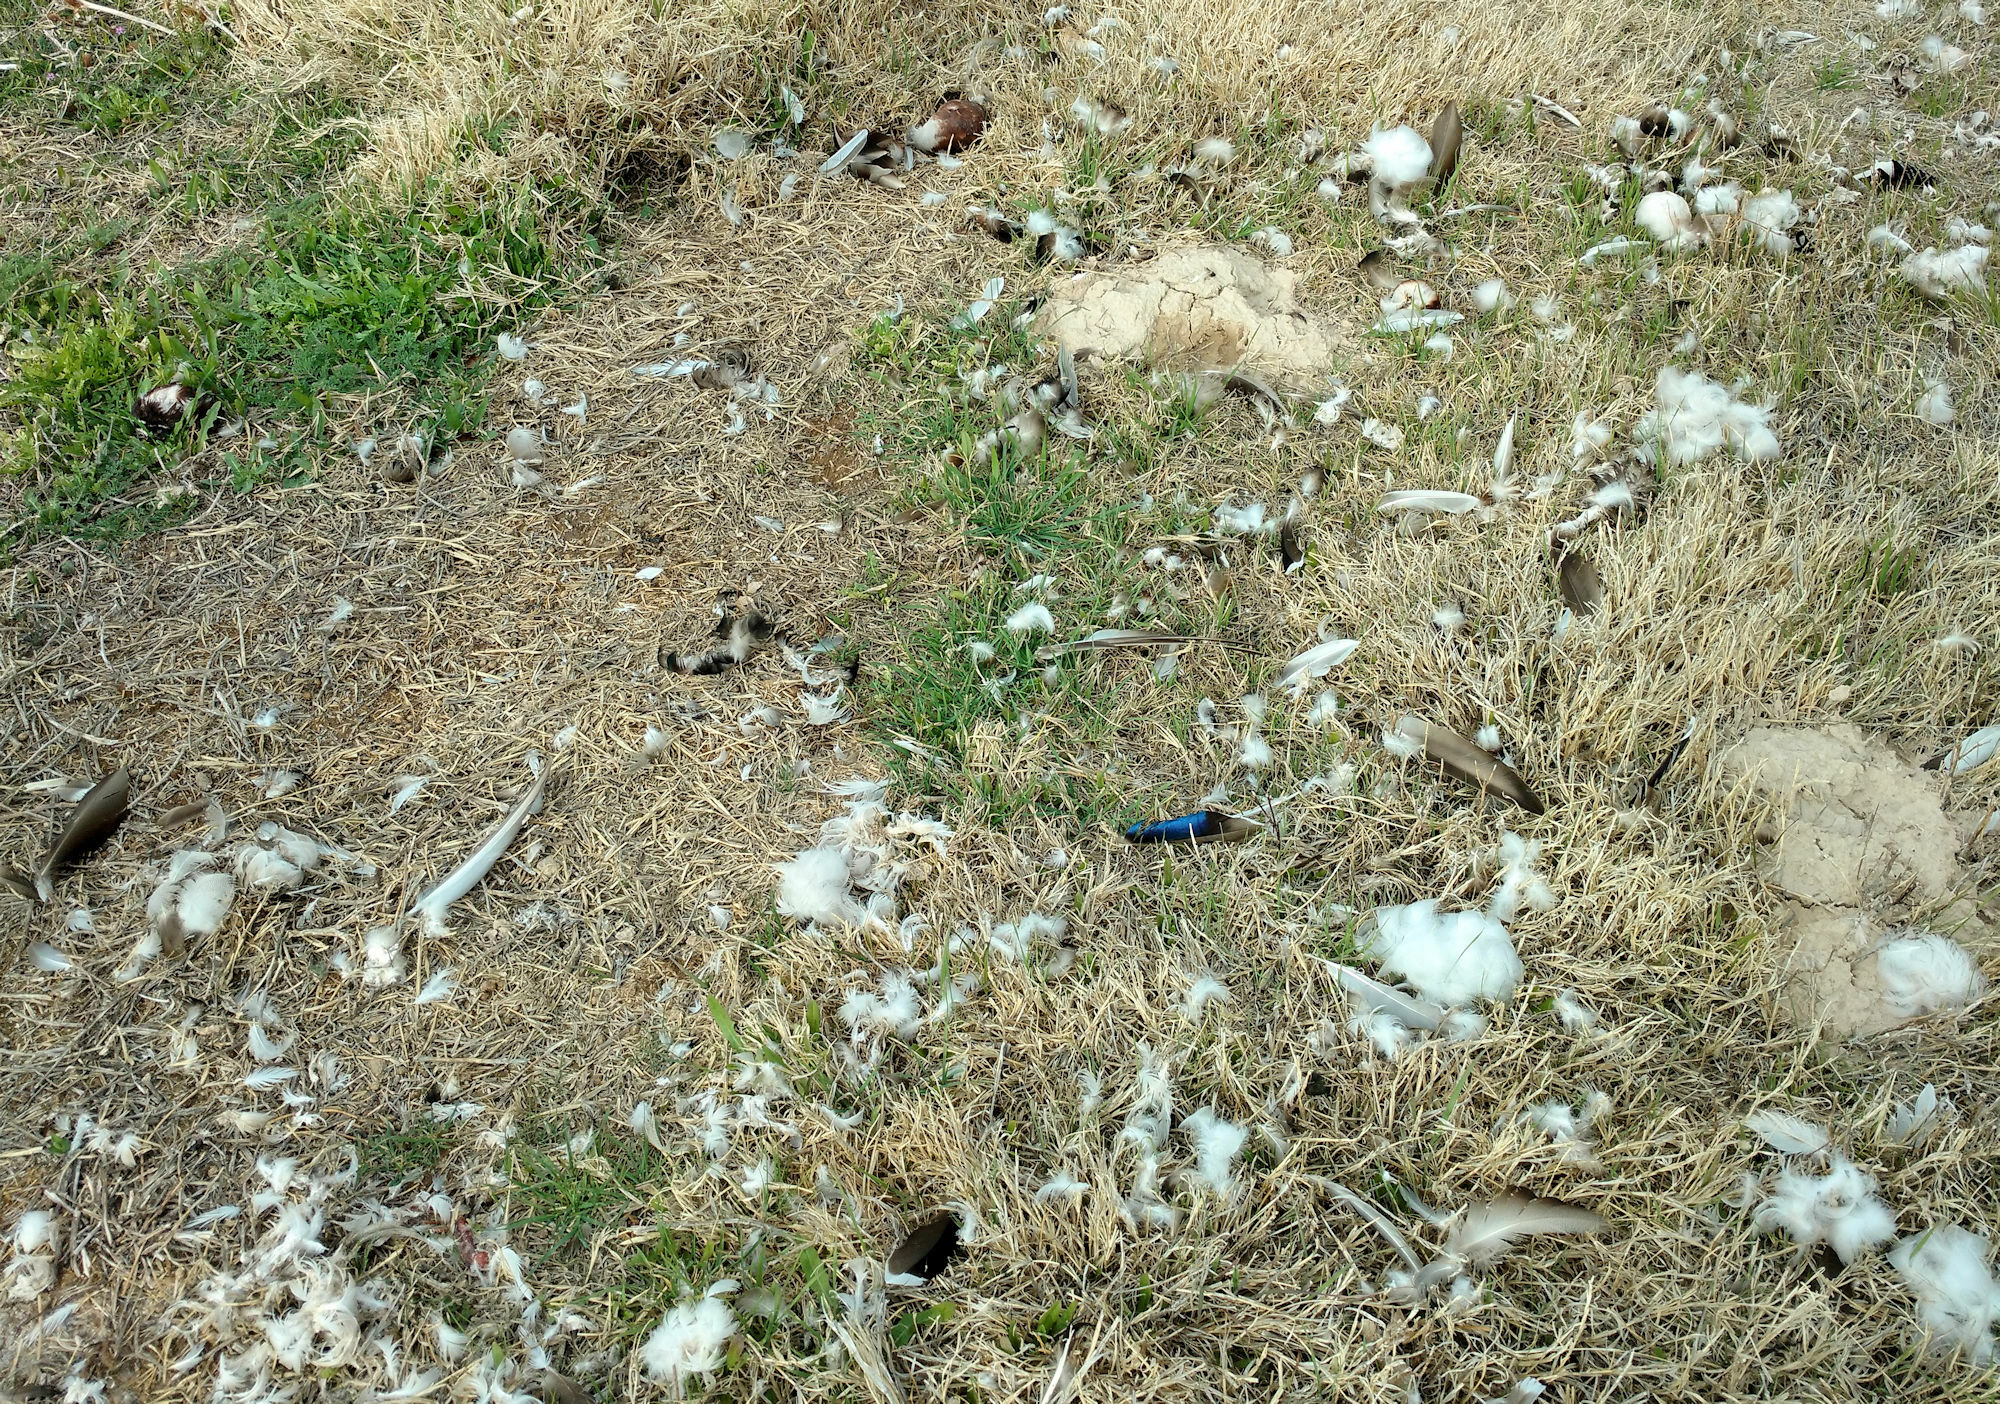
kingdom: Animalia
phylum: Chordata
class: Aves
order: Anseriformes
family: Anatidae
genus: Anas
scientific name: Anas platyrhynchos
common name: Mallard
